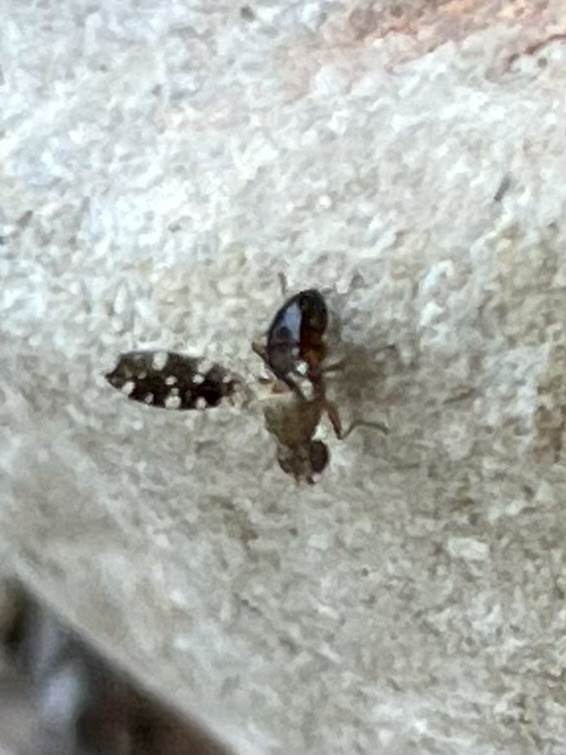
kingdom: Animalia
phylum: Arthropoda
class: Insecta
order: Diptera
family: Heleomyzidae
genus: Trixoscelis
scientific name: Trixoscelis polita
